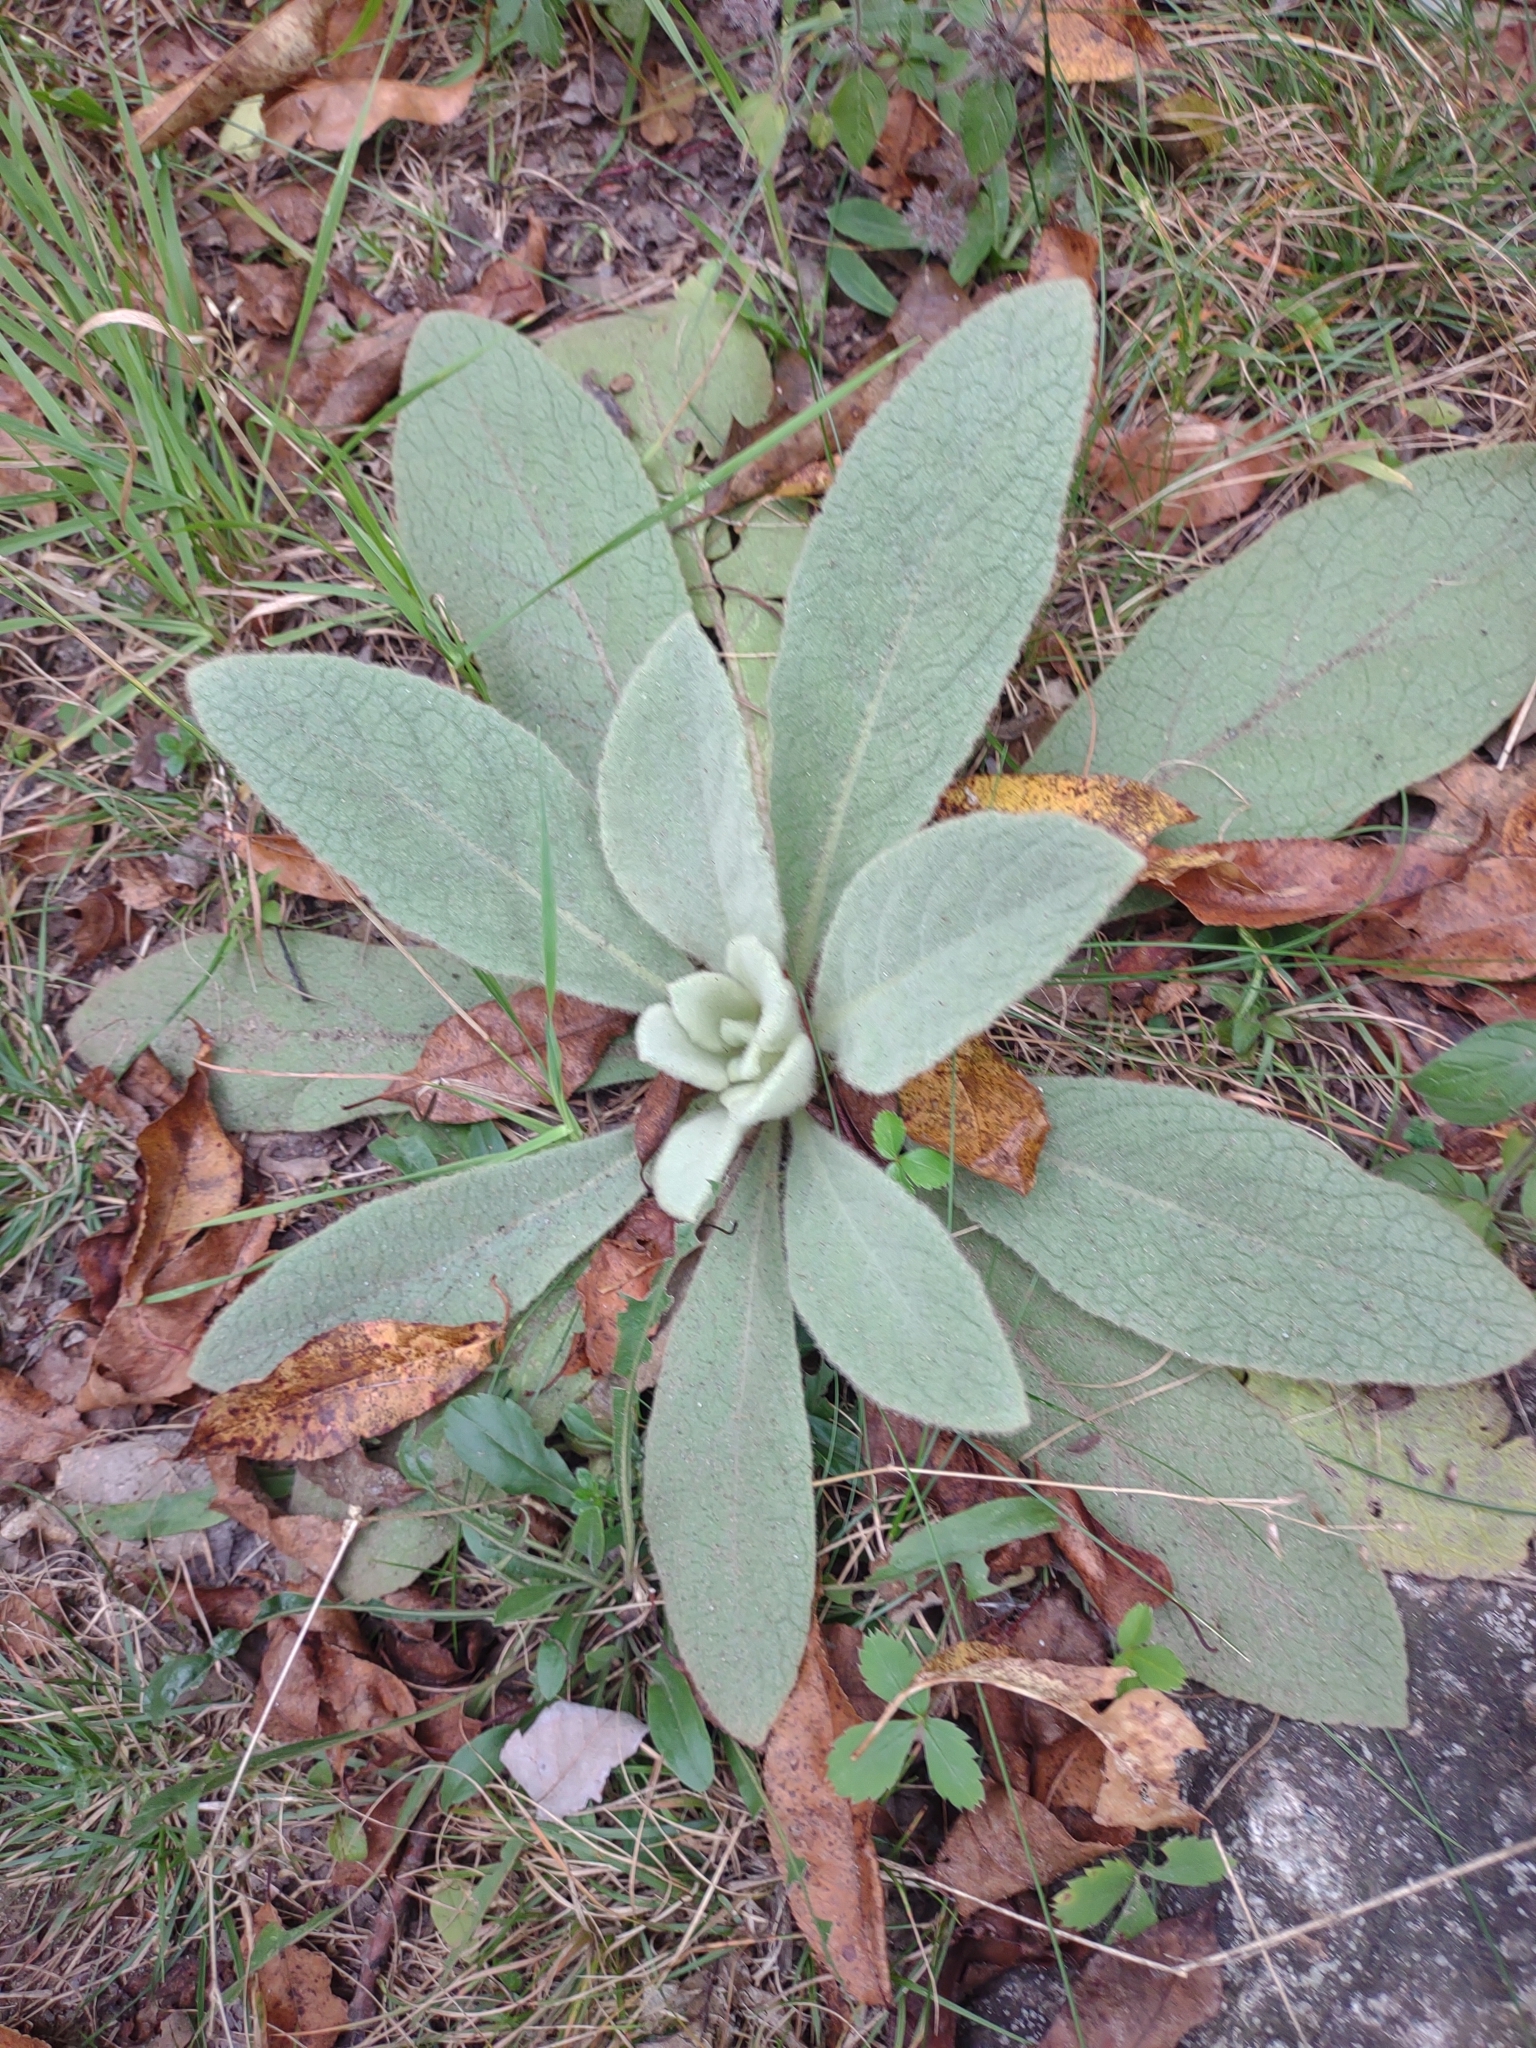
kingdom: Plantae
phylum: Tracheophyta
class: Magnoliopsida
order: Lamiales
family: Scrophulariaceae
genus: Verbascum
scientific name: Verbascum thapsus
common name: Common mullein
